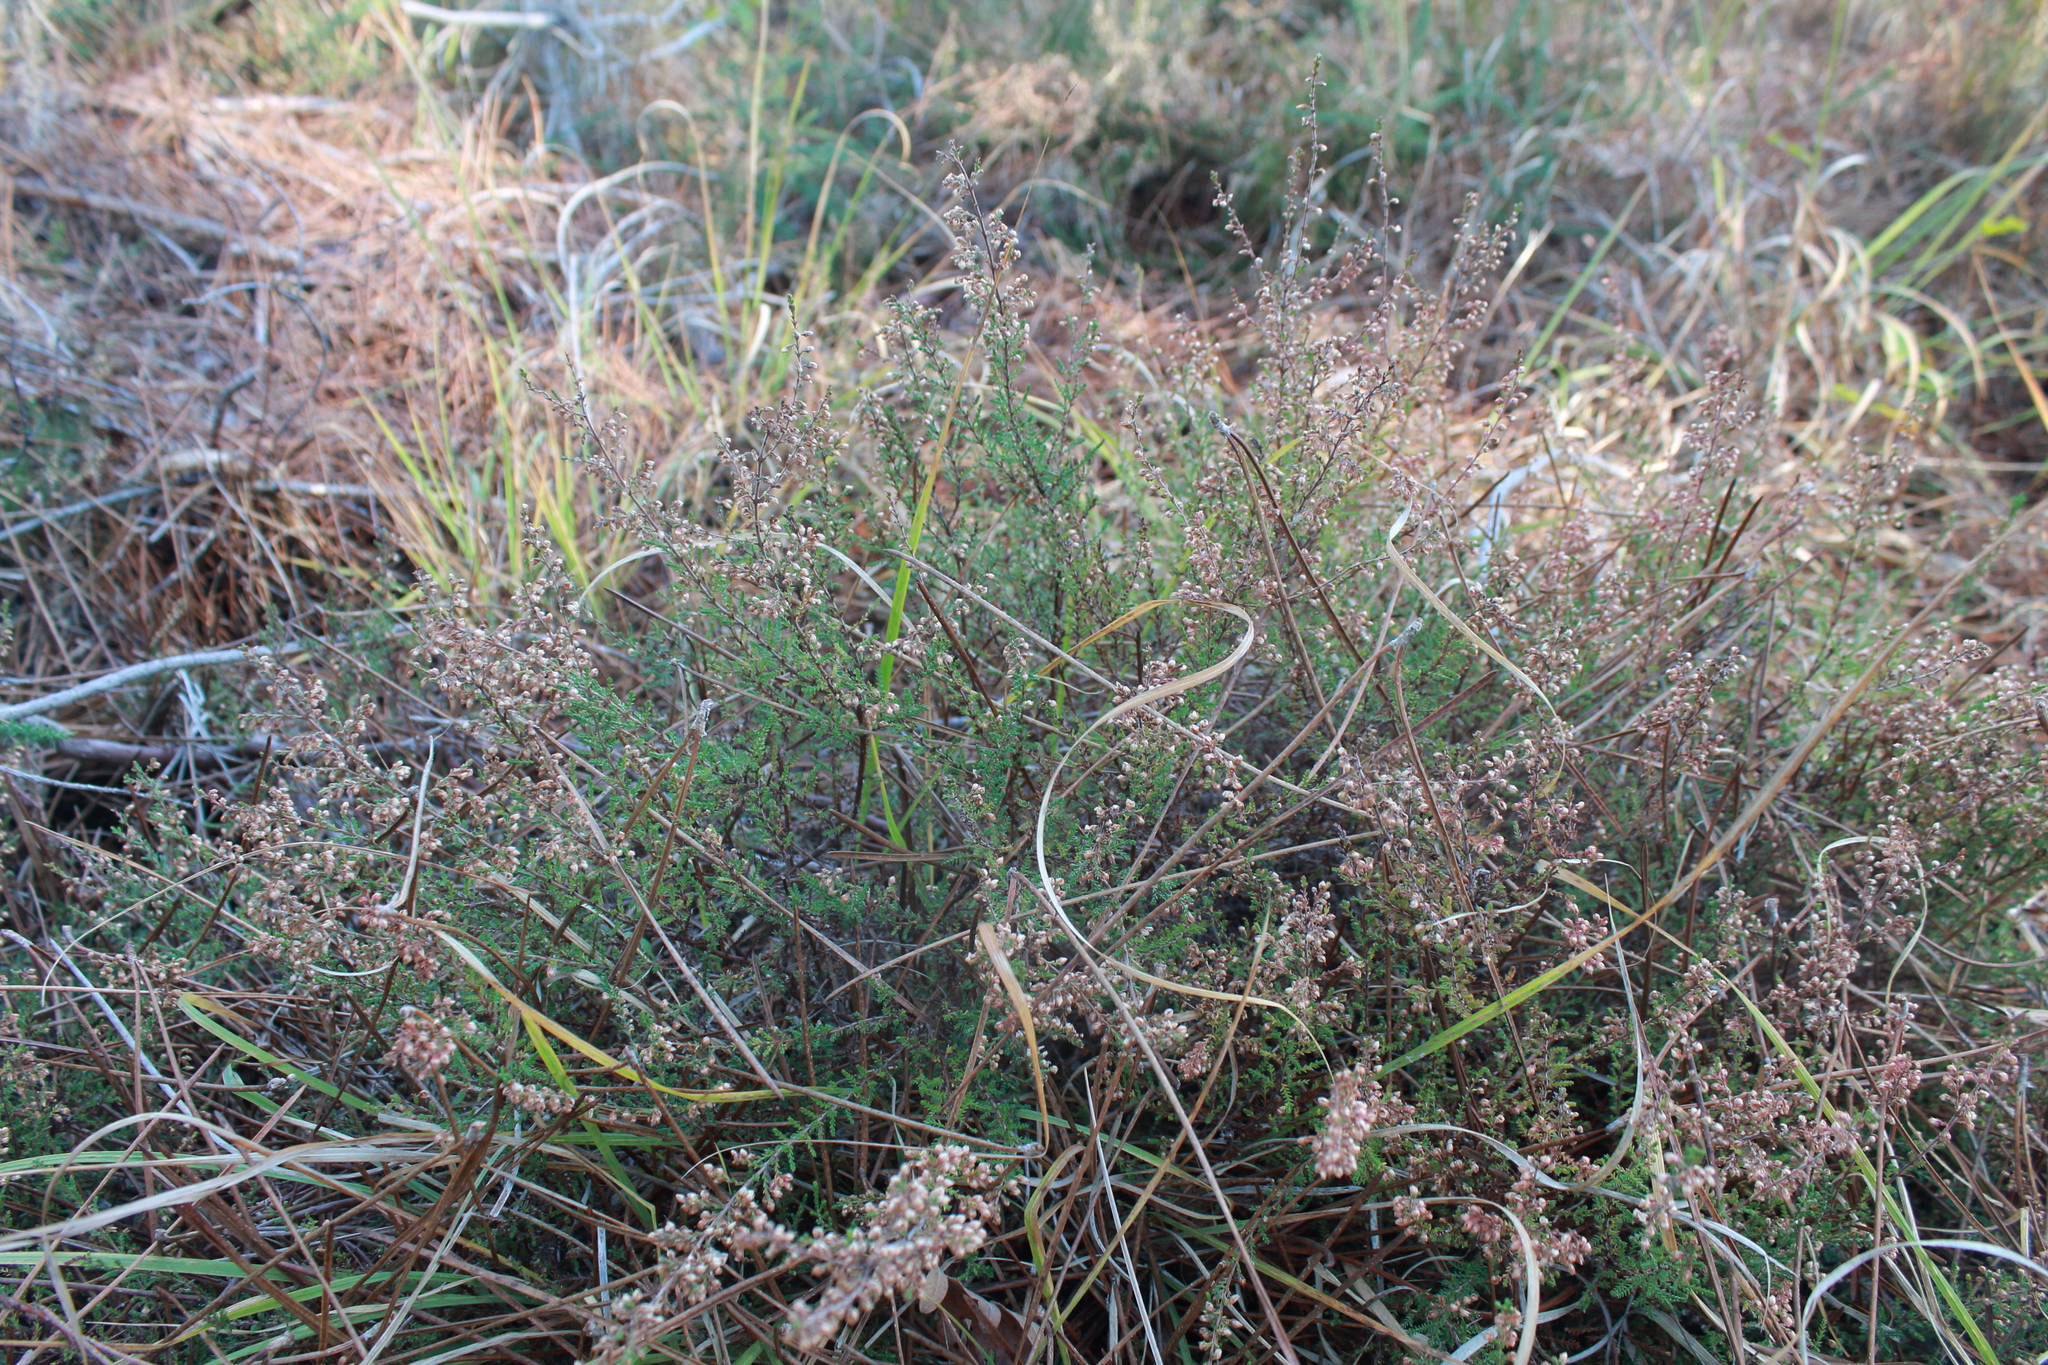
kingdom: Plantae
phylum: Tracheophyta
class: Magnoliopsida
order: Ericales
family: Ericaceae
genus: Calluna
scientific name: Calluna vulgaris
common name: Heather
